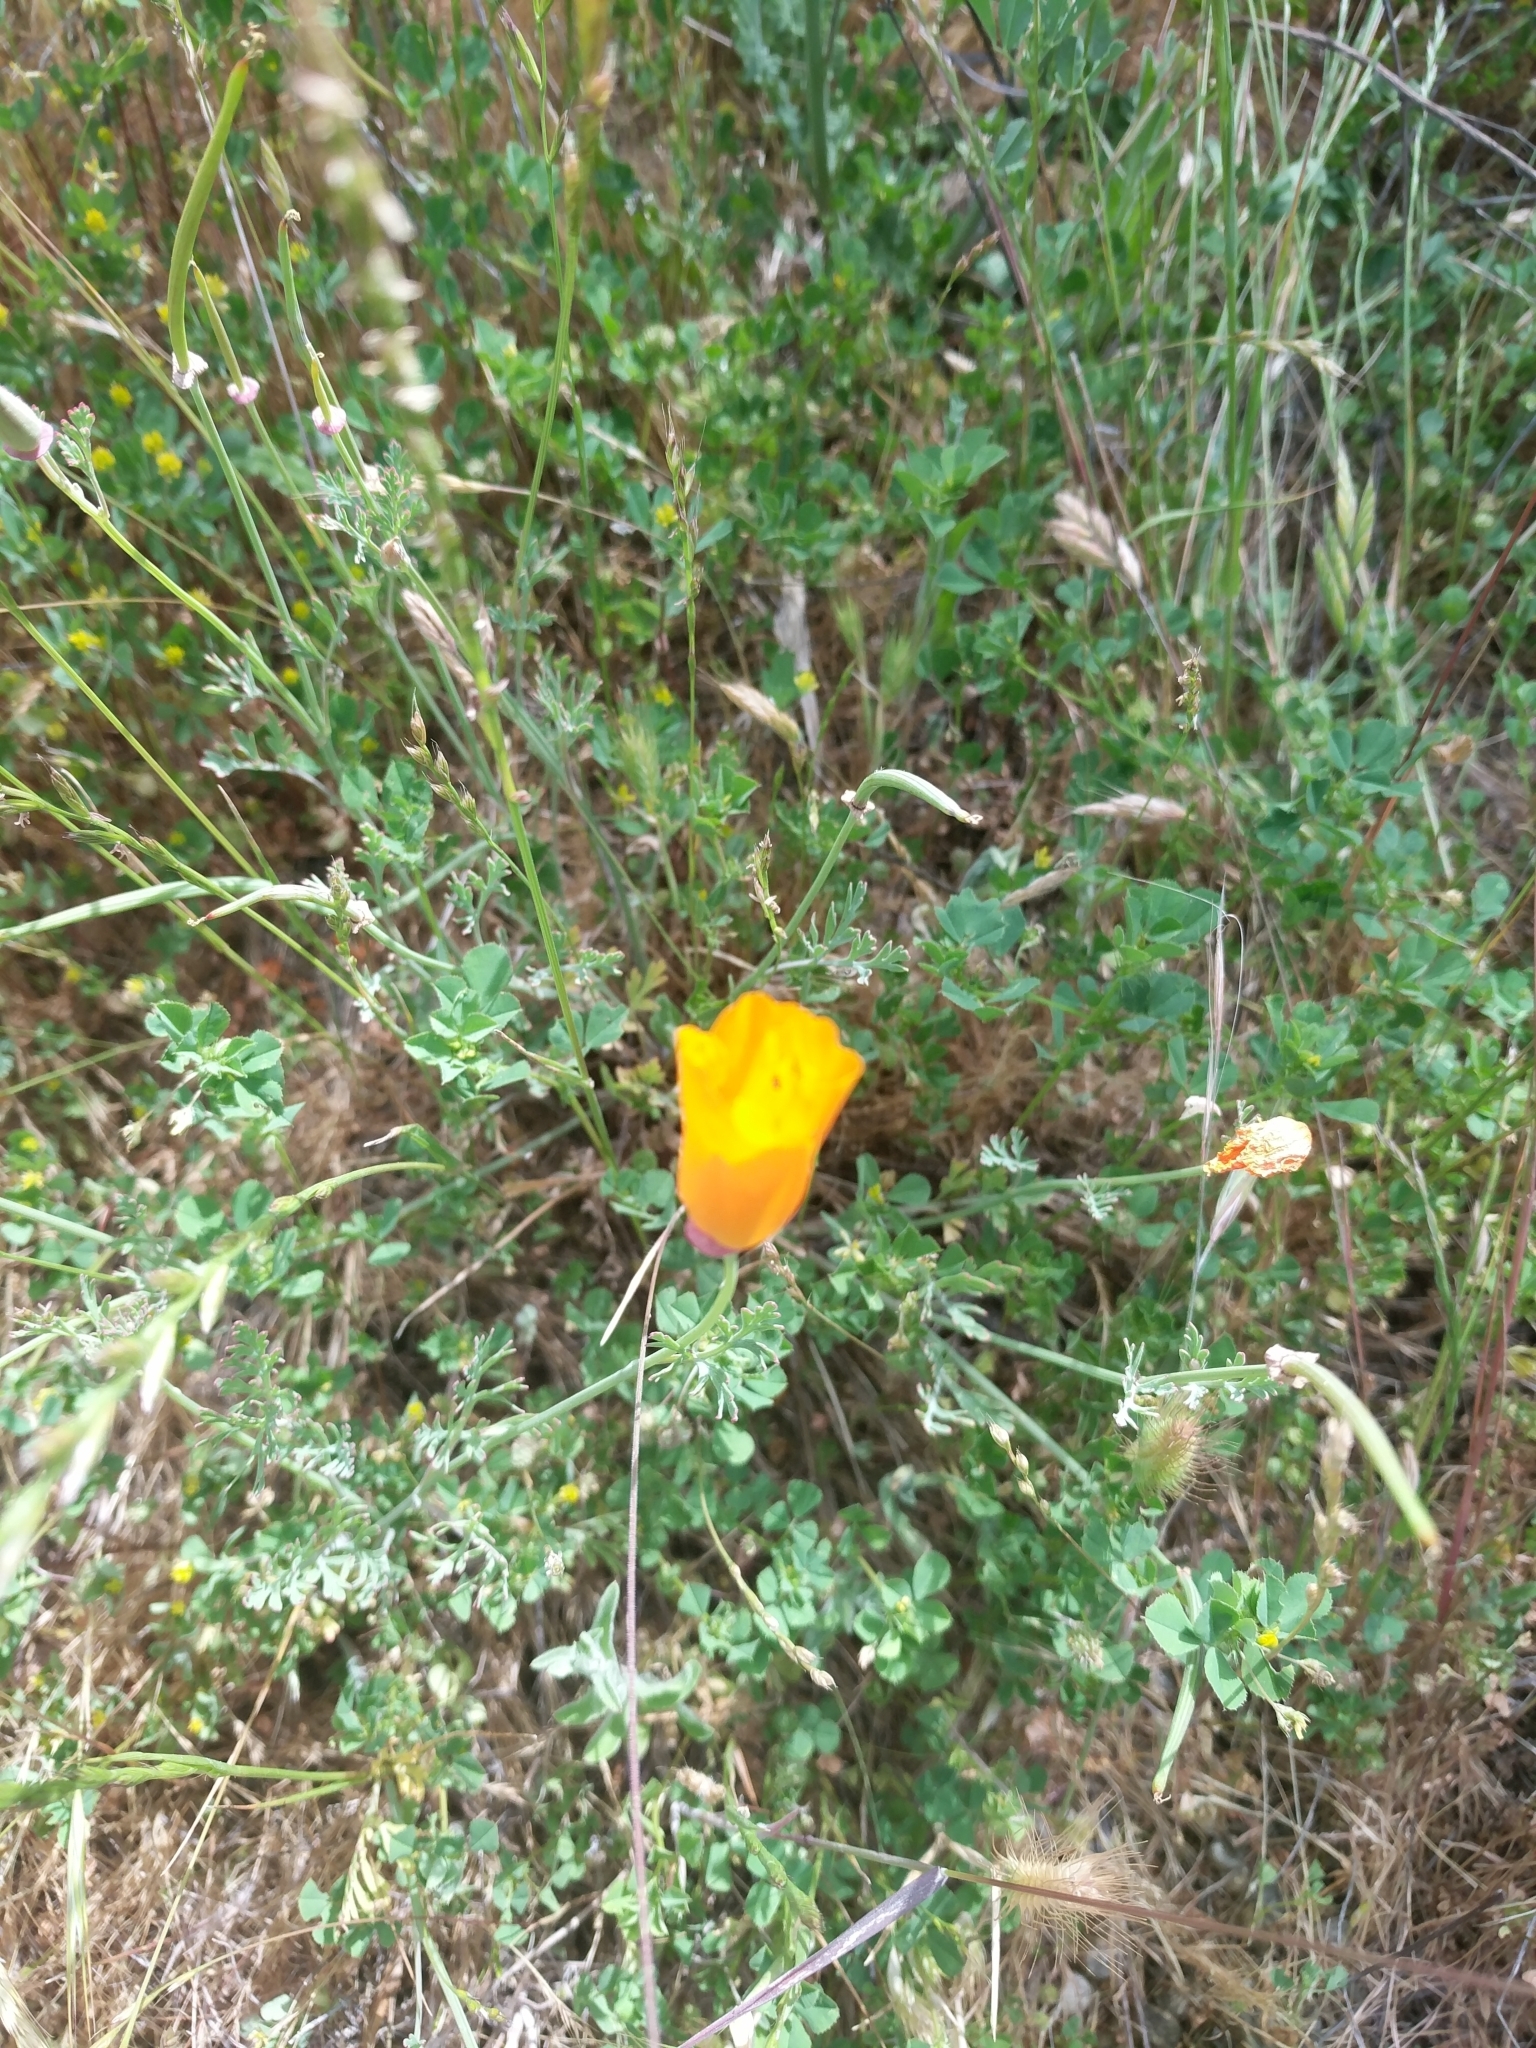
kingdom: Plantae
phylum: Tracheophyta
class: Magnoliopsida
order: Ranunculales
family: Papaveraceae
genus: Eschscholzia
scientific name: Eschscholzia californica
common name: California poppy
